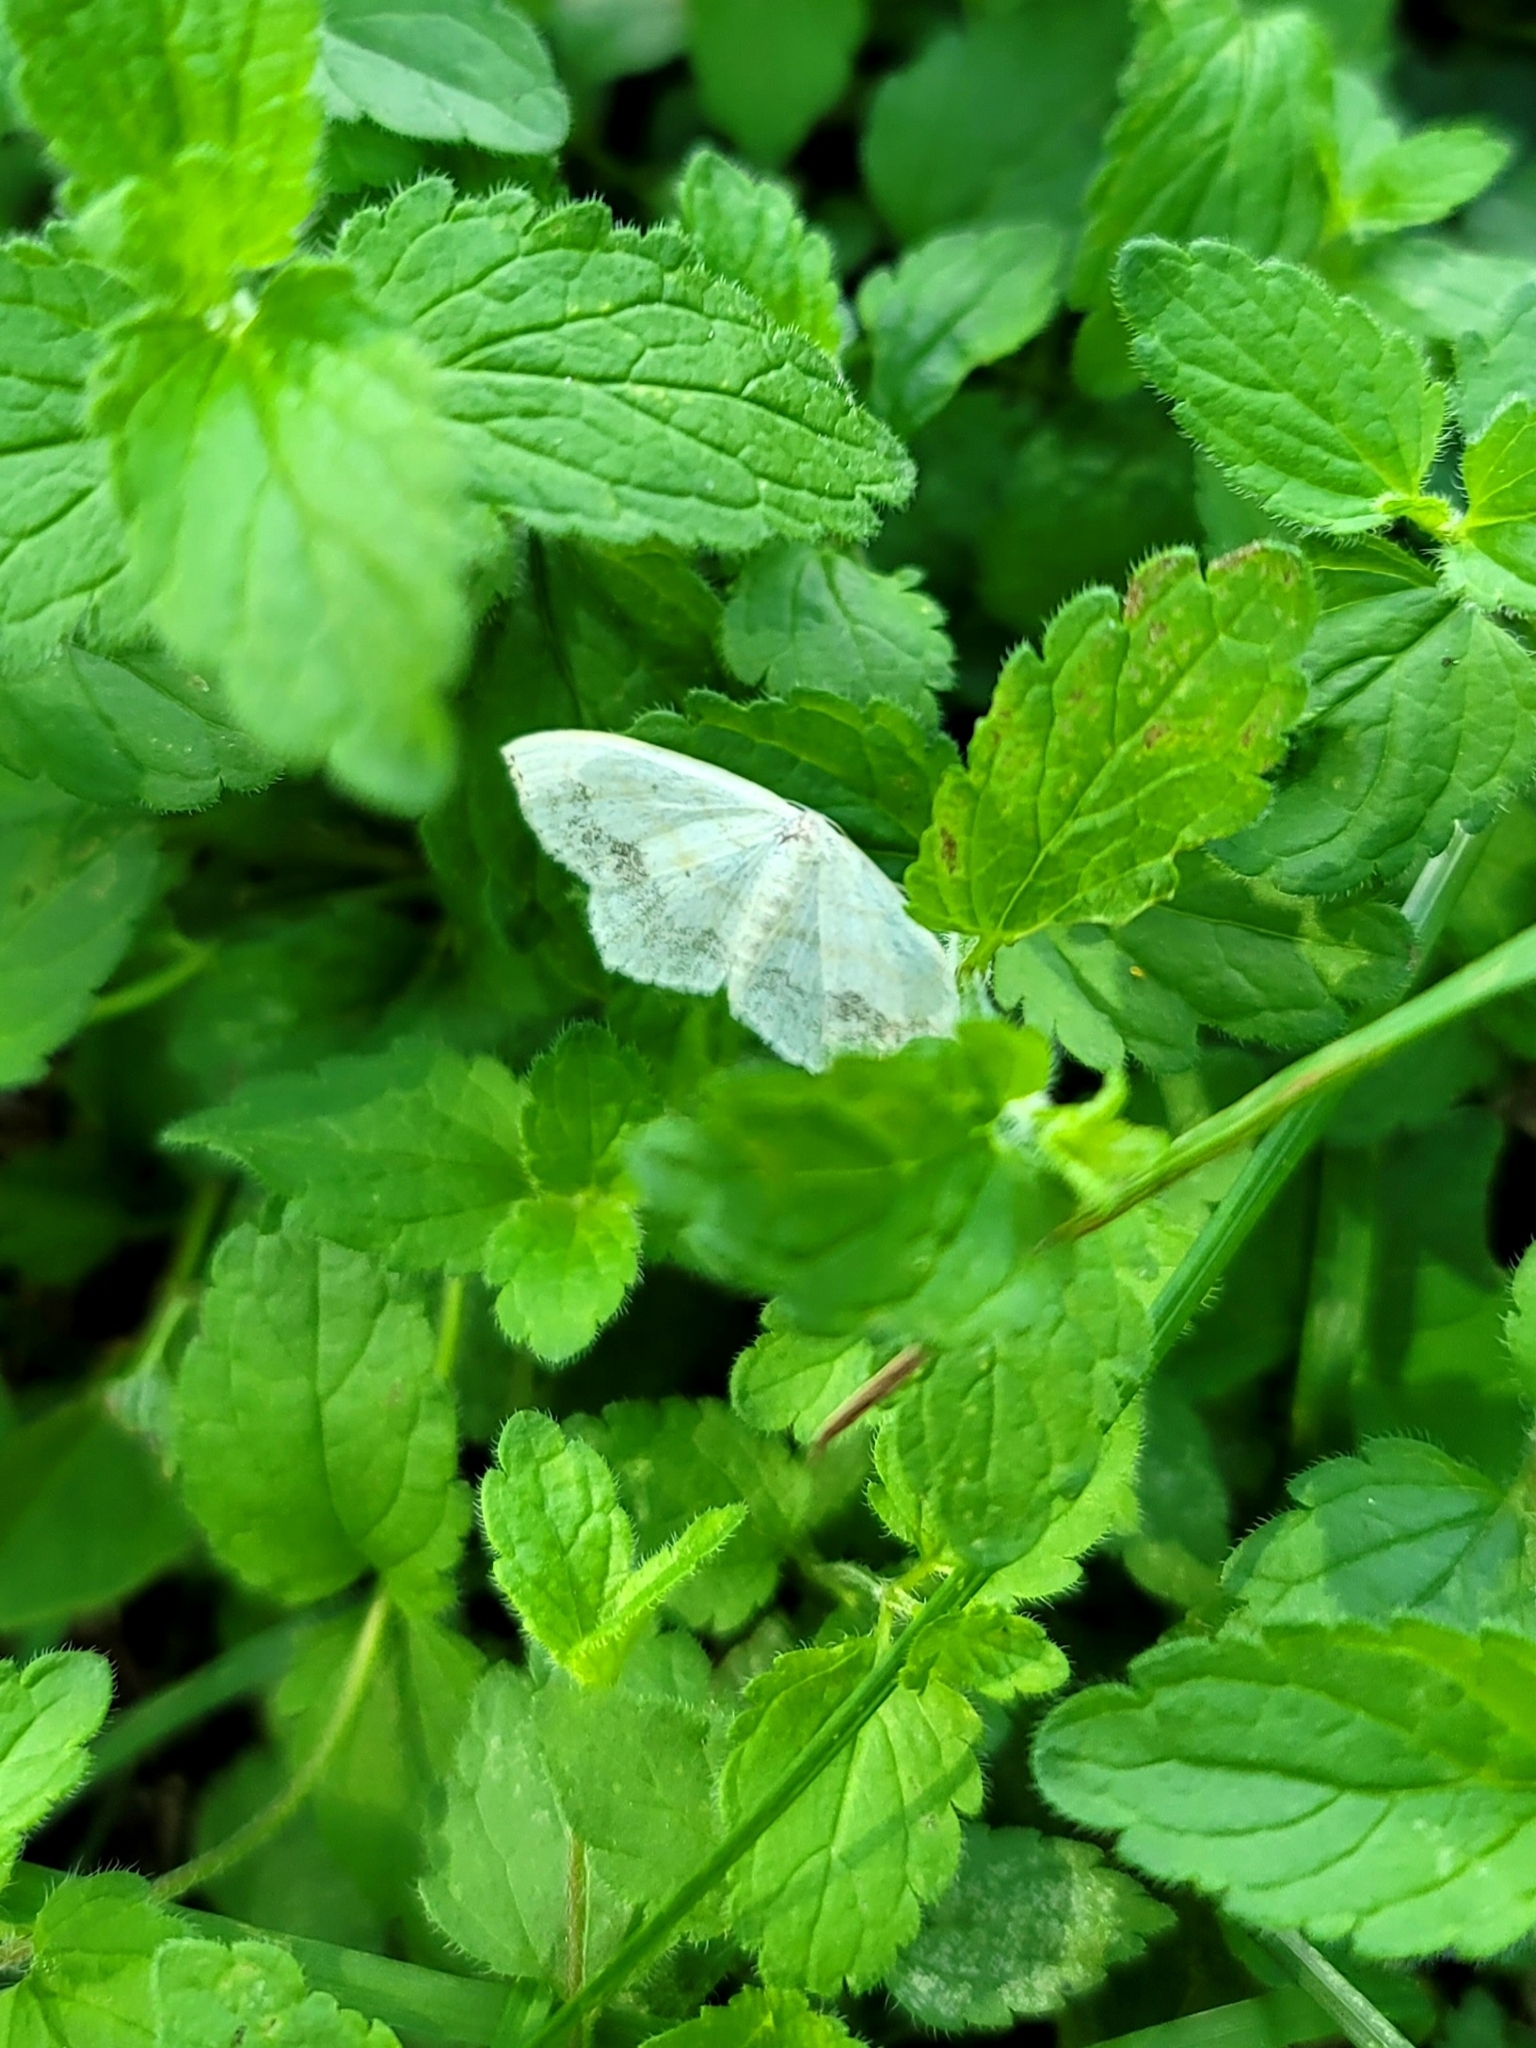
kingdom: Animalia
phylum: Arthropoda
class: Insecta
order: Lepidoptera
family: Geometridae
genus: Scopula
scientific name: Scopula limboundata
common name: Large lace border
